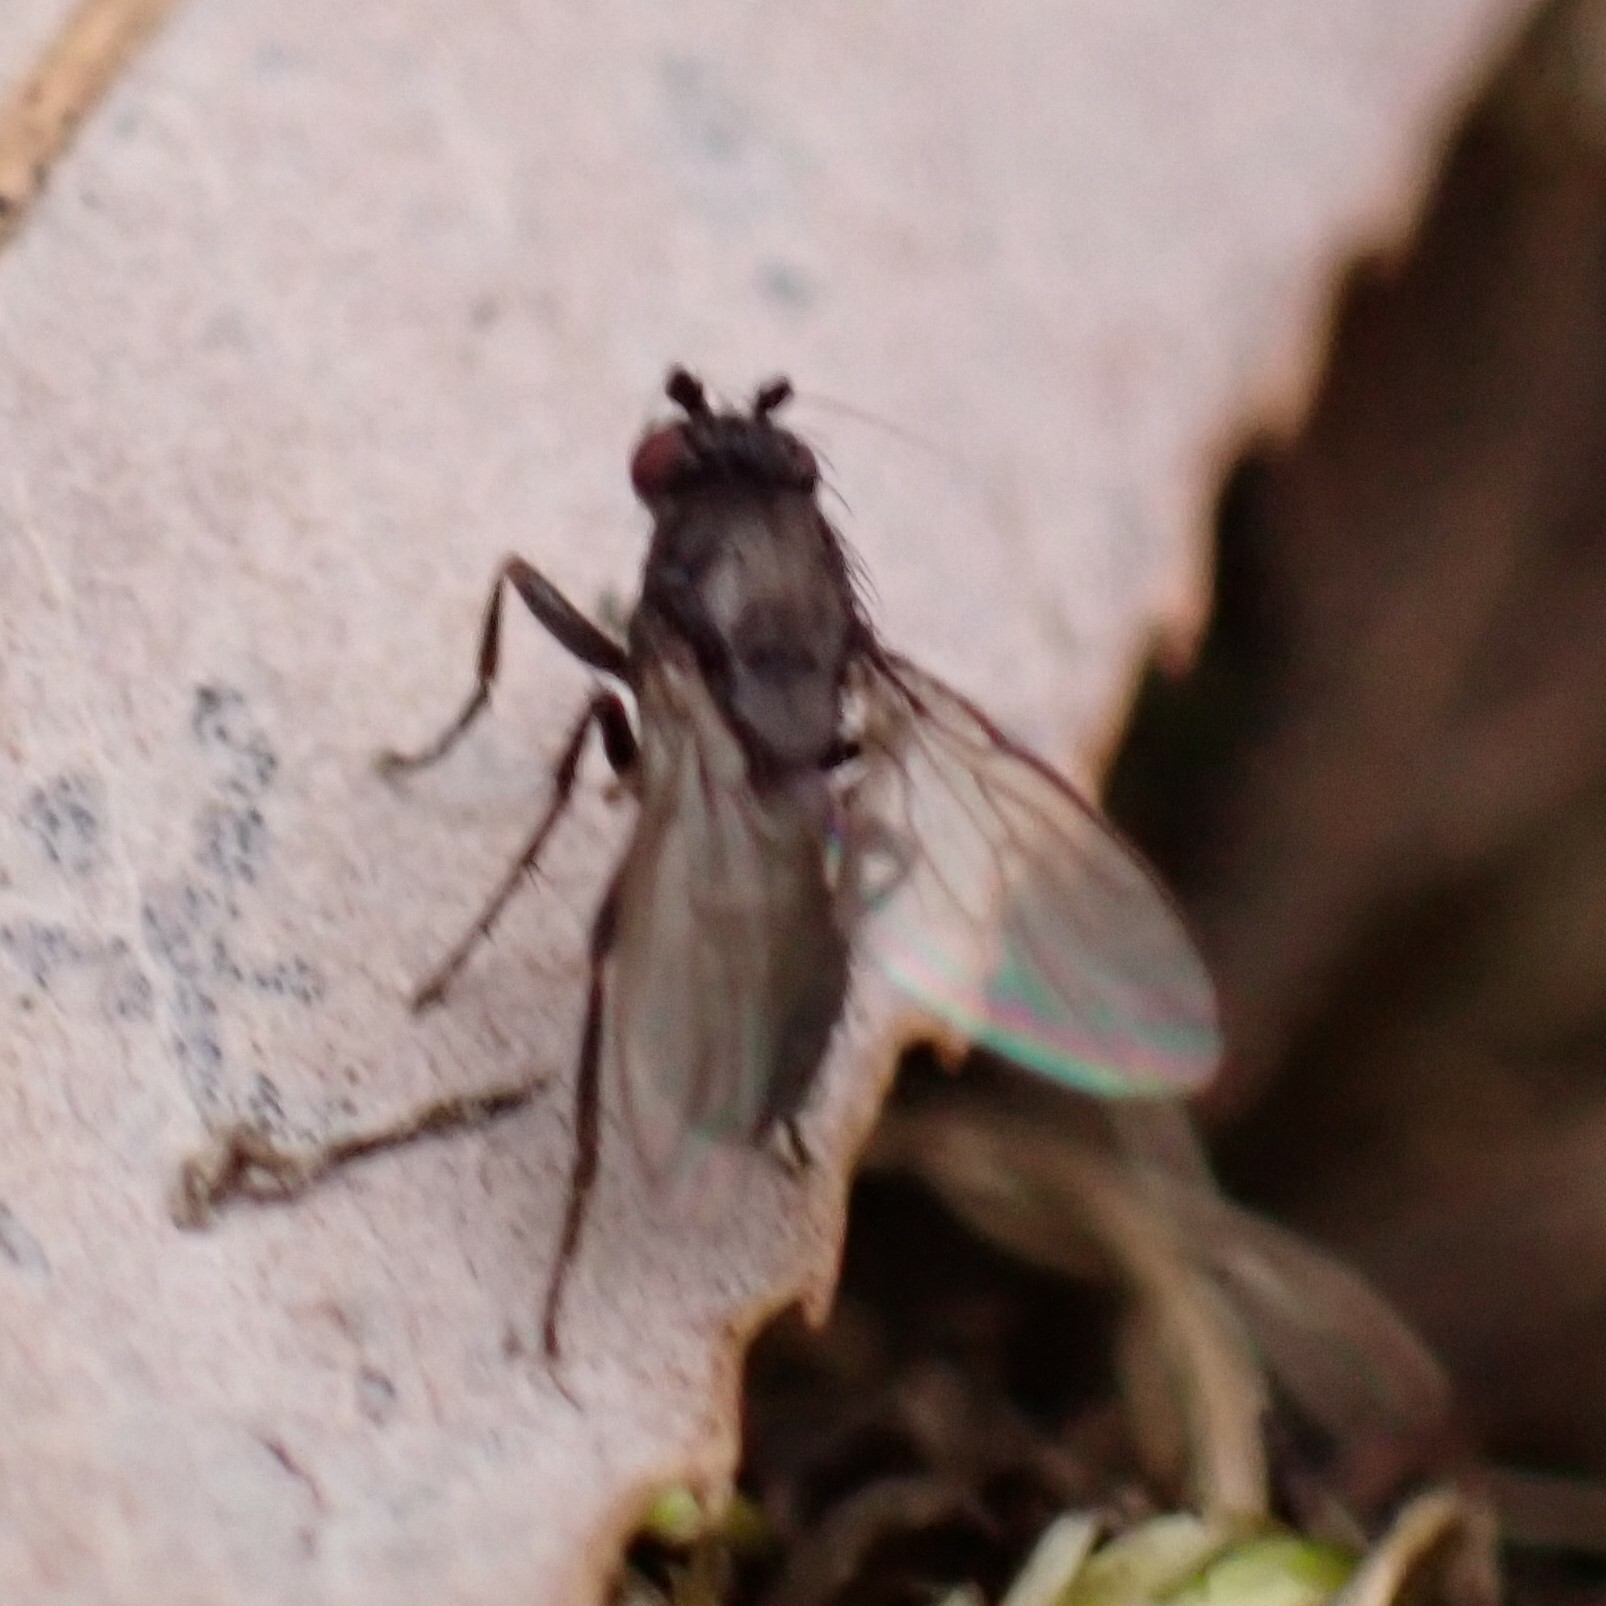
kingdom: Animalia
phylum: Arthropoda
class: Insecta
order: Diptera
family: Sphaeroceridae
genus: Leptocera
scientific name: Leptocera
